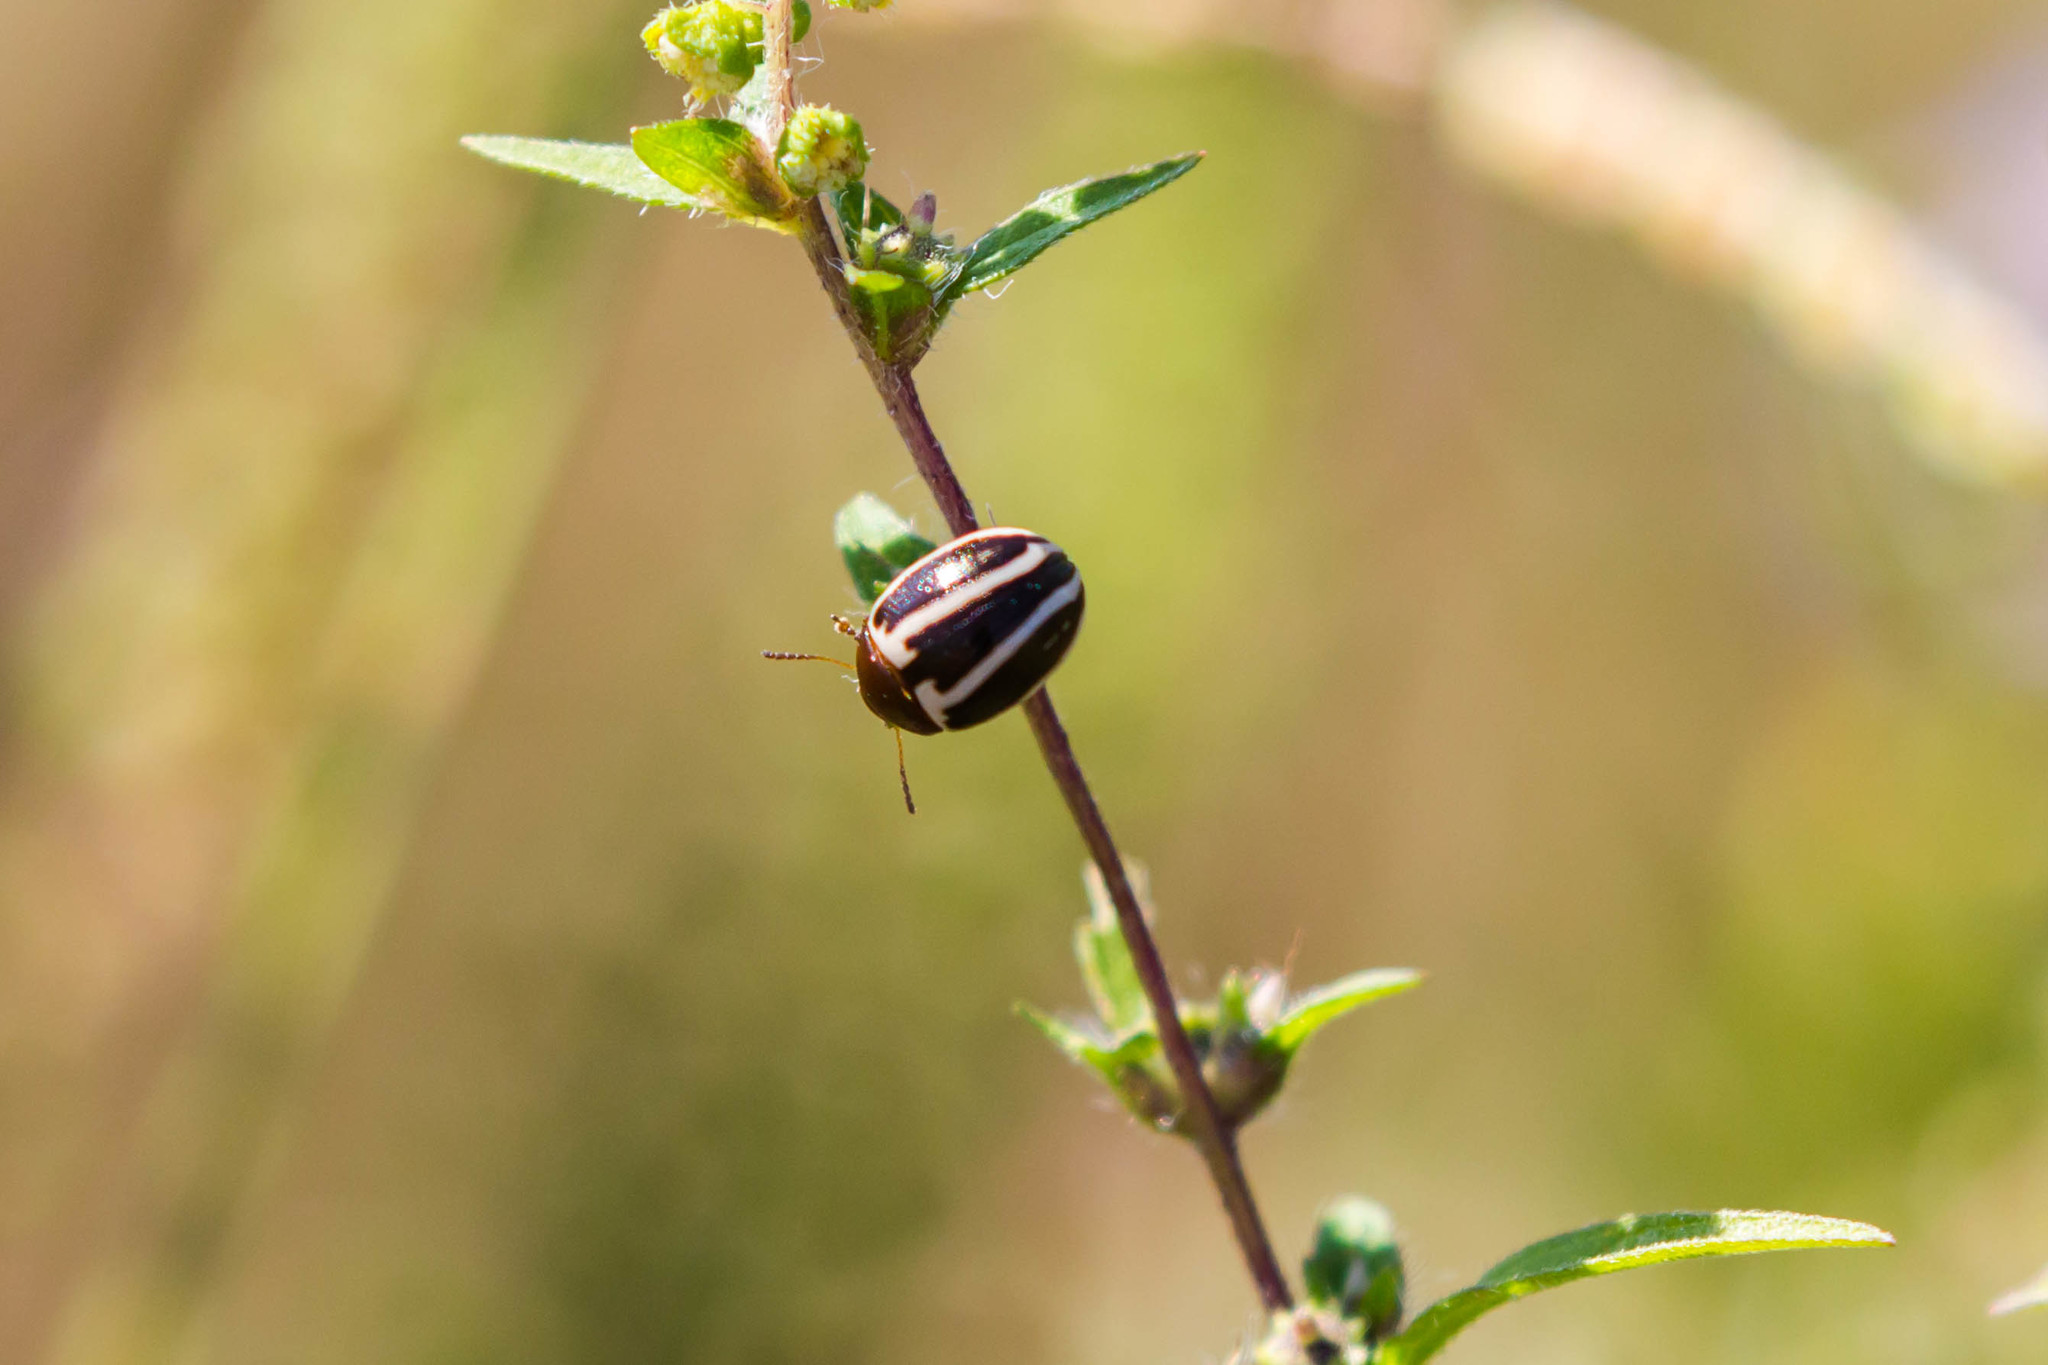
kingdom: Animalia
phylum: Arthropoda
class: Insecta
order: Coleoptera
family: Chrysomelidae
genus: Calligrapha
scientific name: Calligrapha californica
